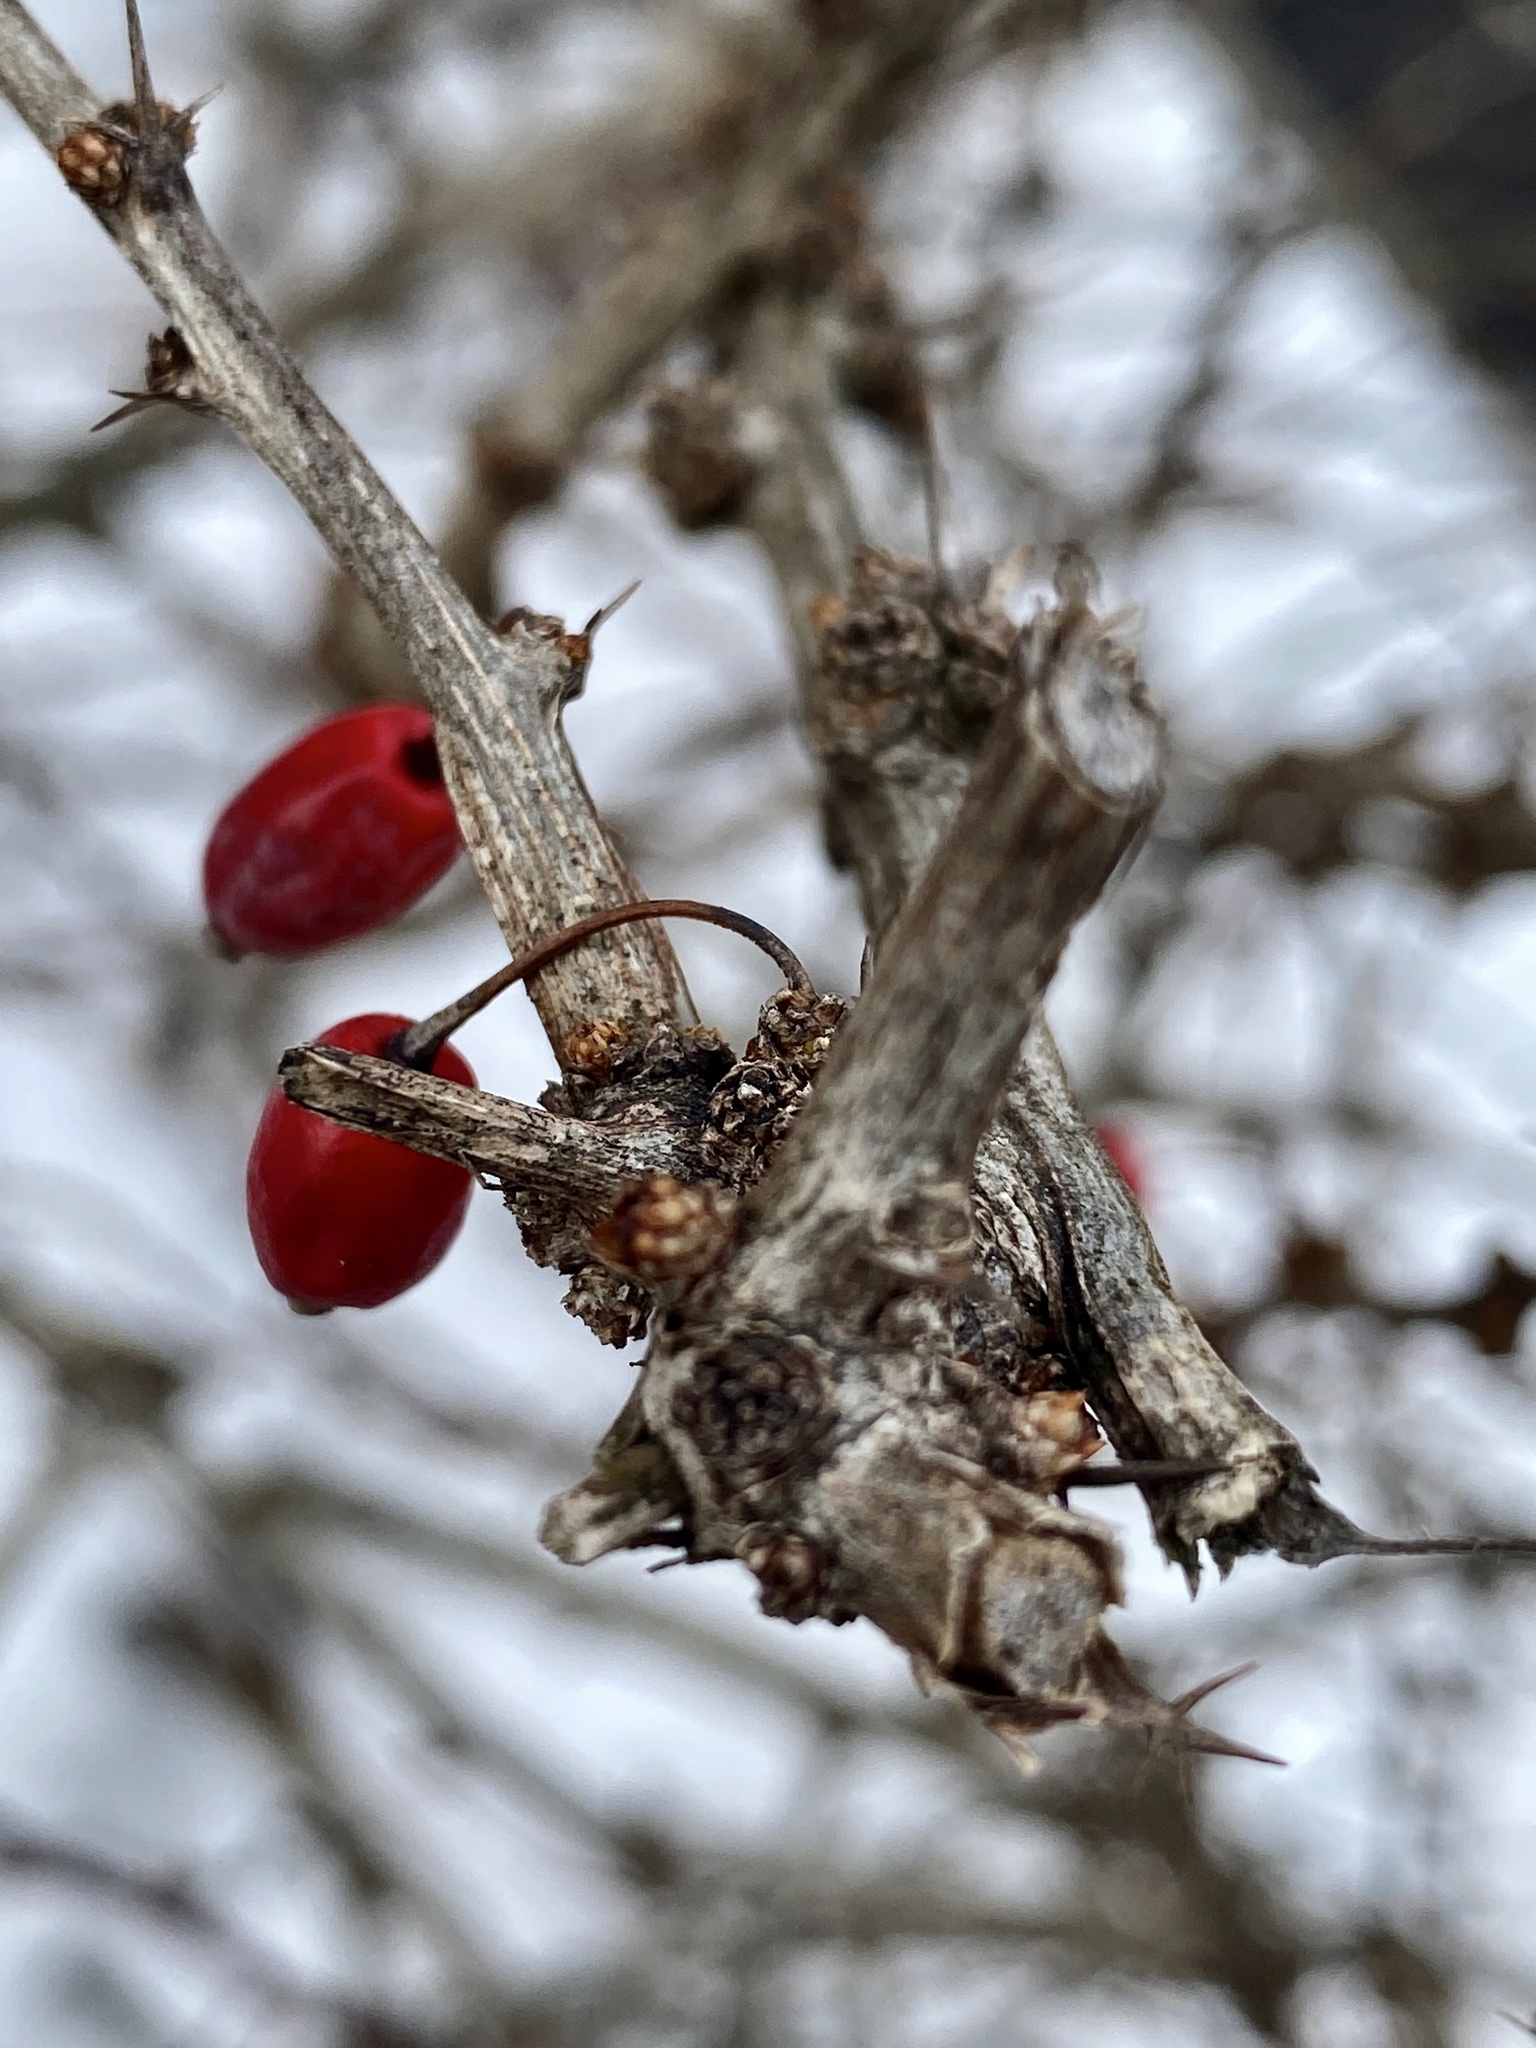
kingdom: Plantae
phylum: Tracheophyta
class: Magnoliopsida
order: Ranunculales
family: Berberidaceae
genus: Berberis
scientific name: Berberis thunbergii
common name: Japanese barberry
